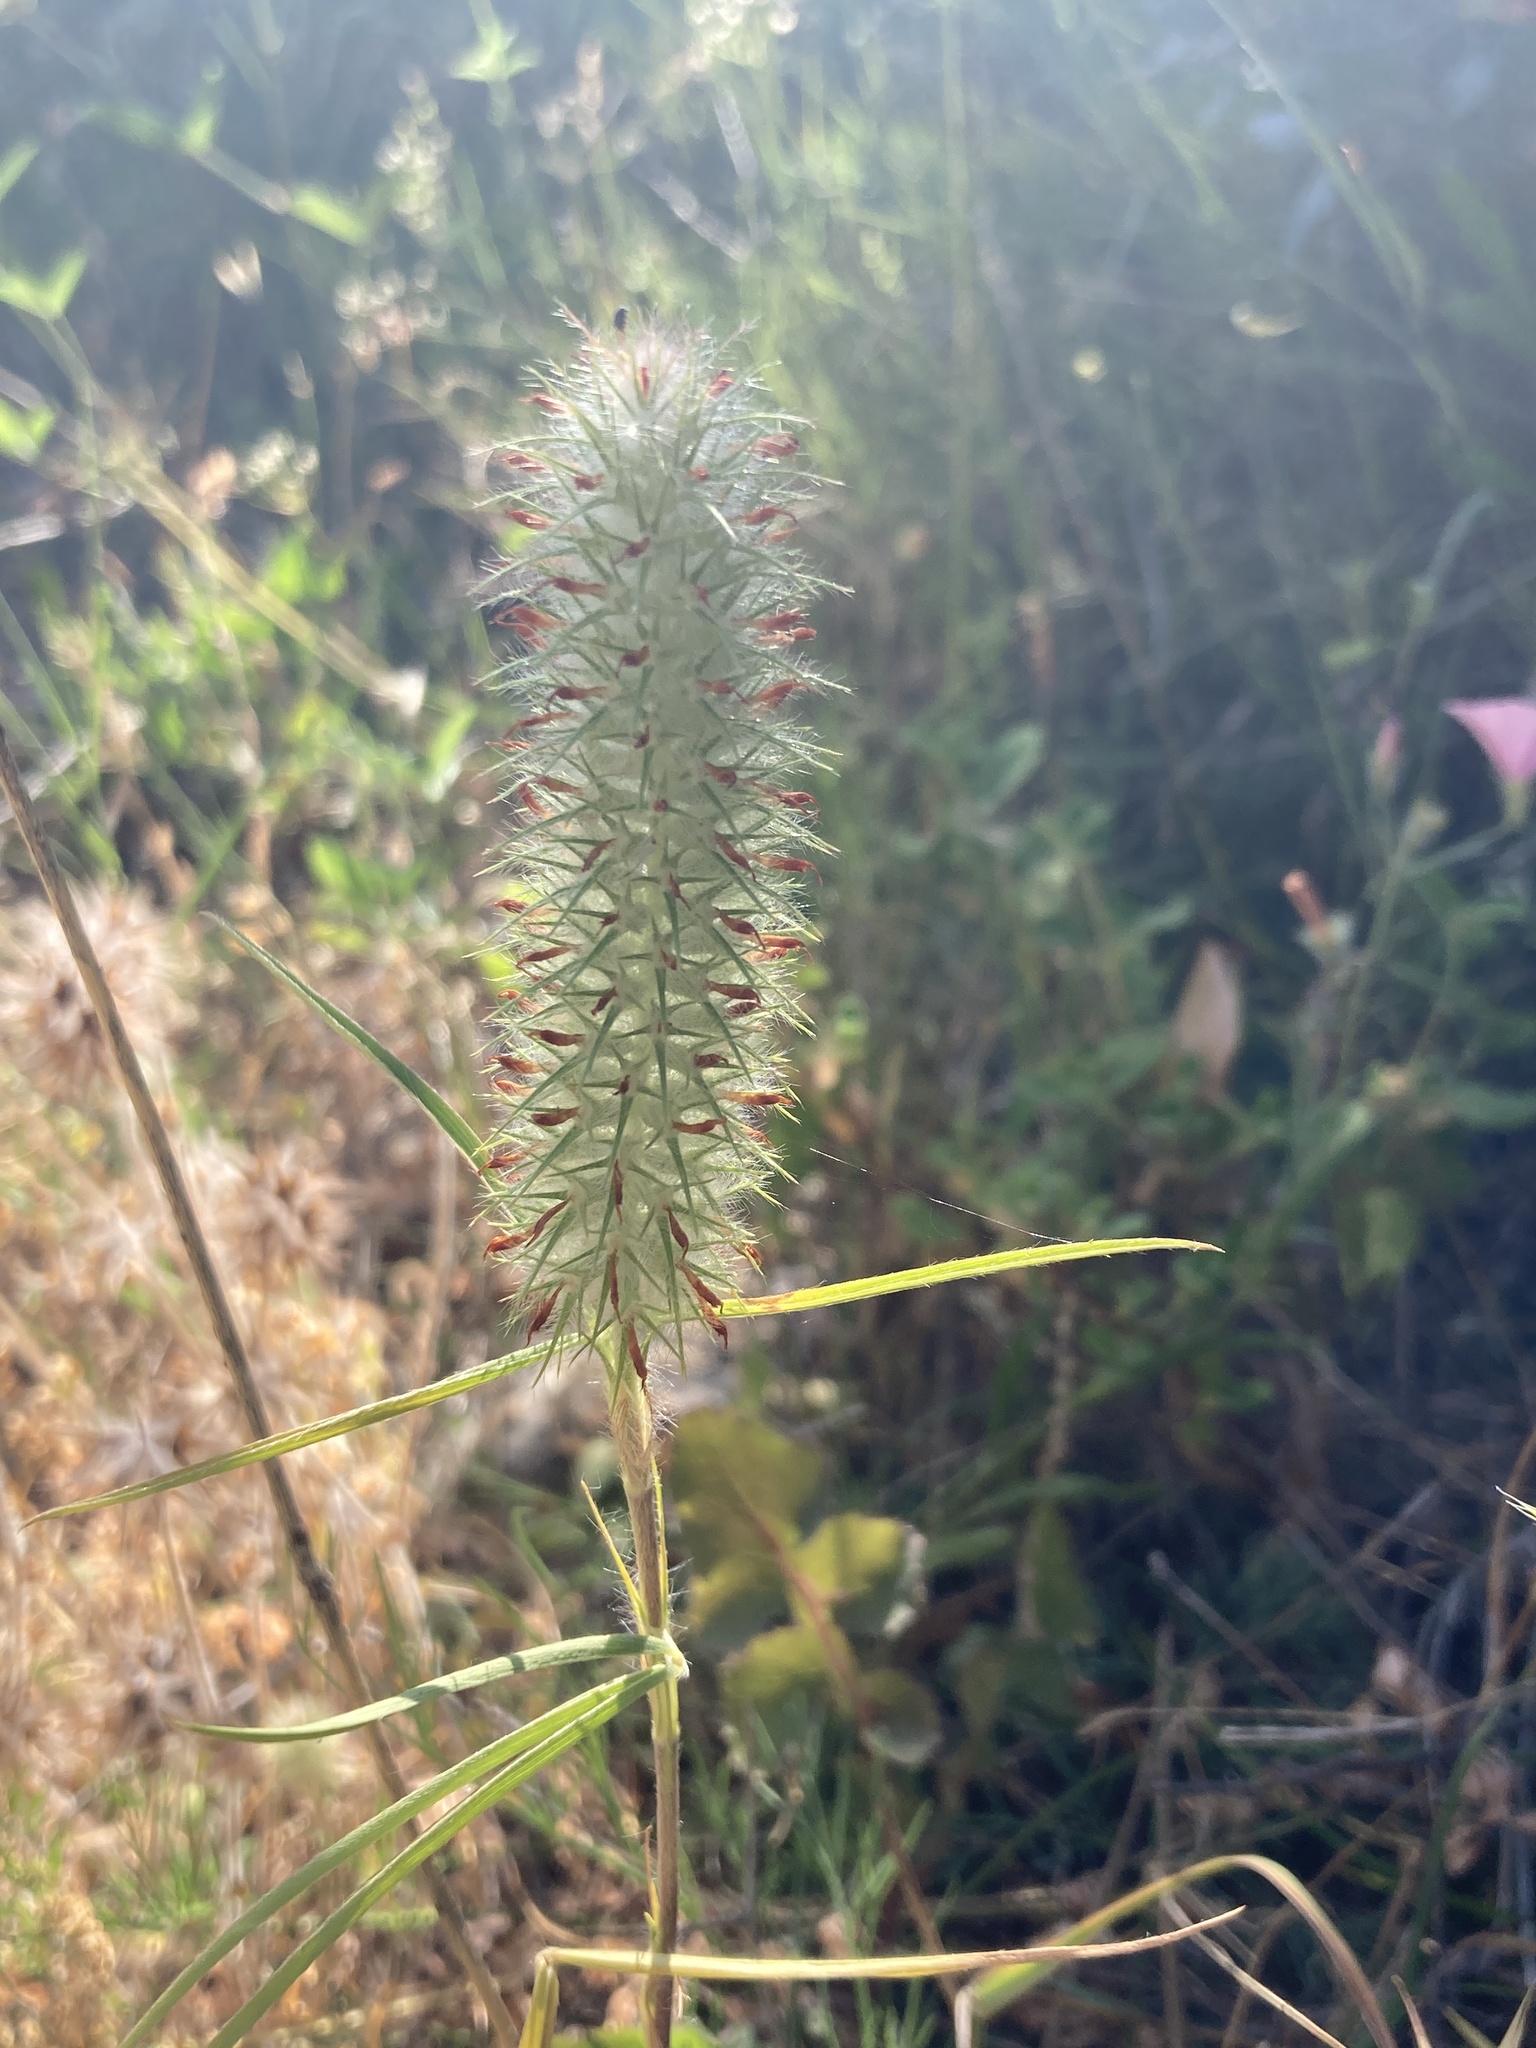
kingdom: Plantae
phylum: Tracheophyta
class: Magnoliopsida
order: Fabales
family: Fabaceae
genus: Trifolium
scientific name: Trifolium angustifolium
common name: Narrow clover
